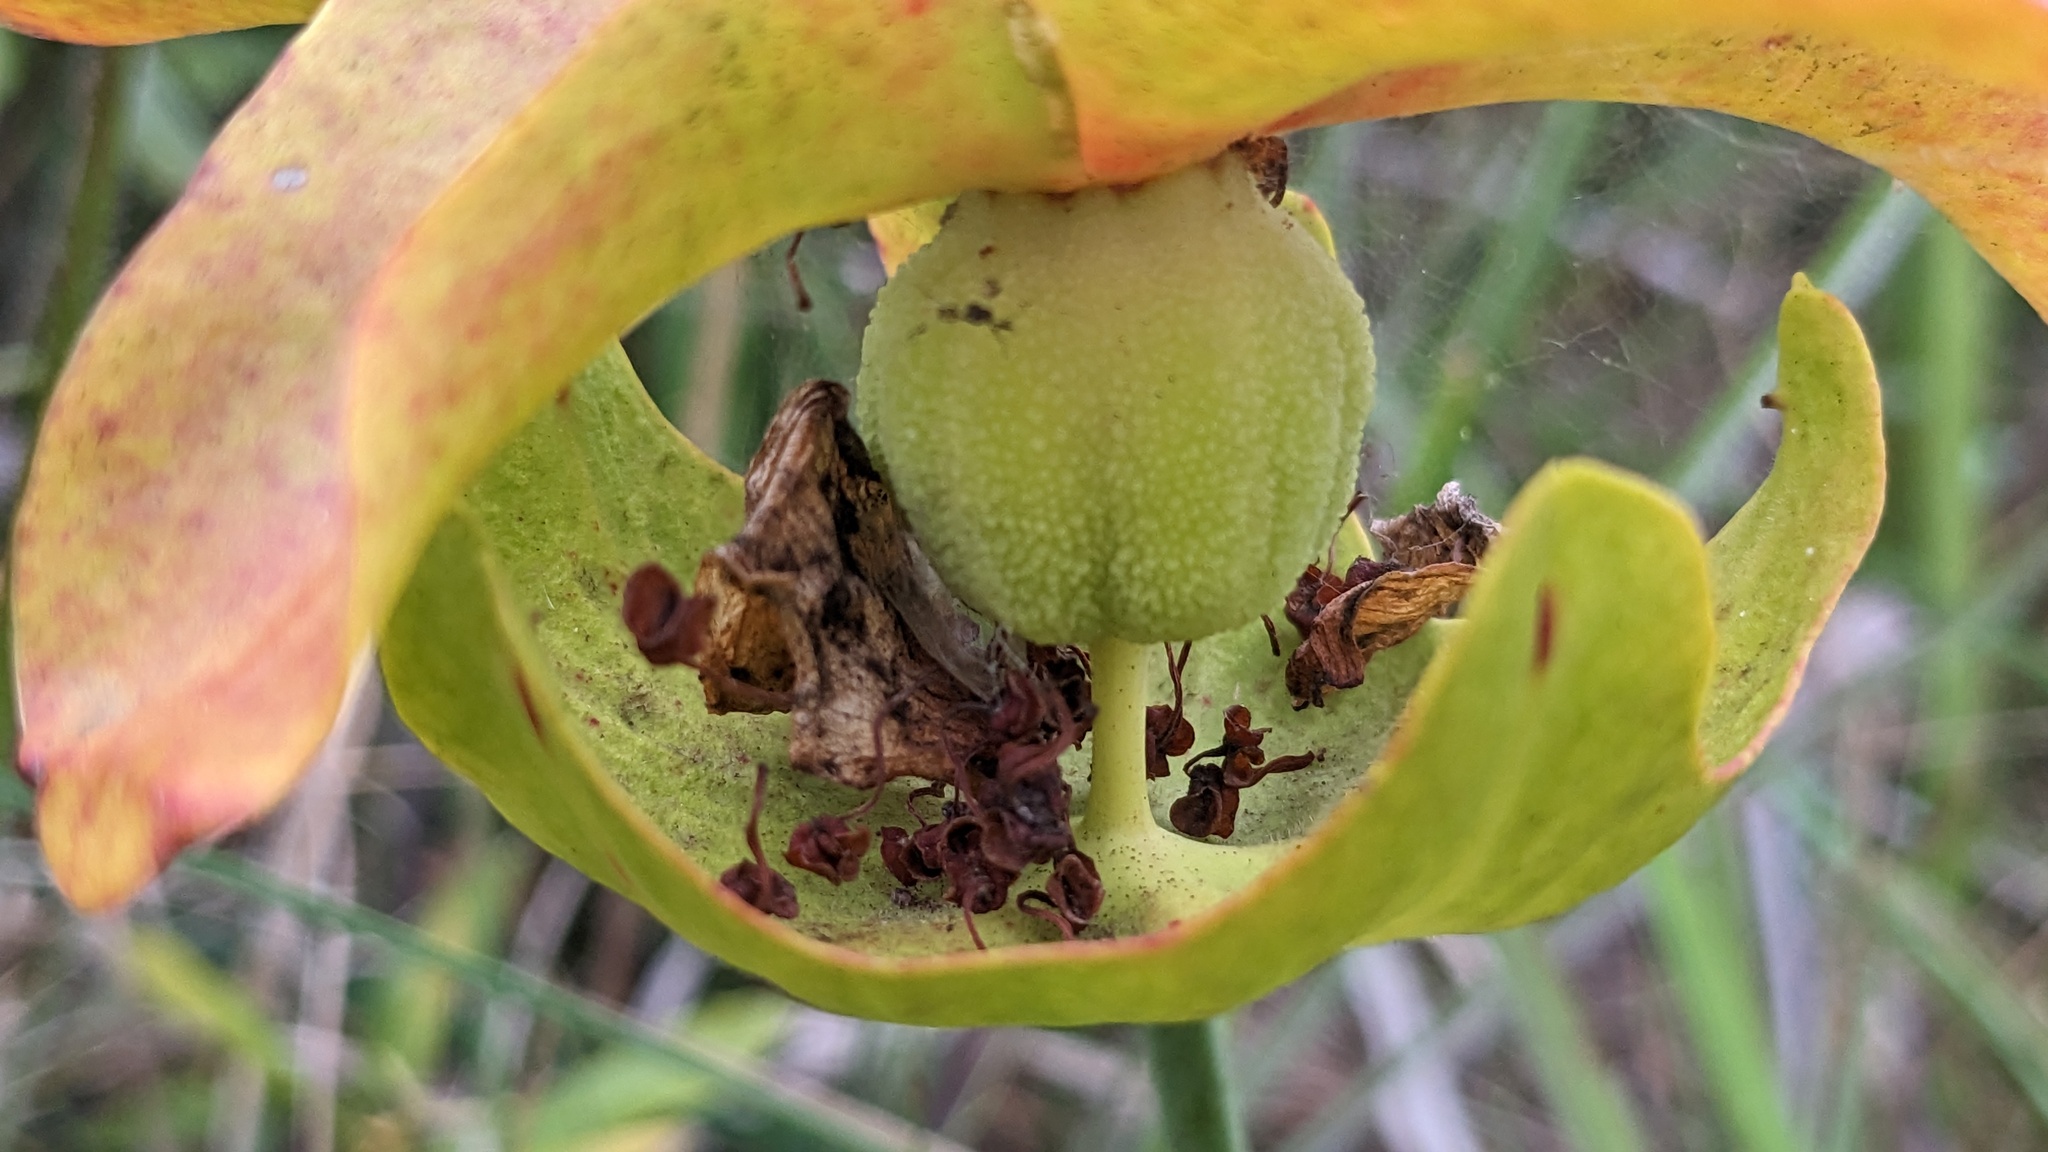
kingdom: Plantae
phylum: Tracheophyta
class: Magnoliopsida
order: Ericales
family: Sarraceniaceae
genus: Sarracenia
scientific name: Sarracenia alata
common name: Yellow trumpets
